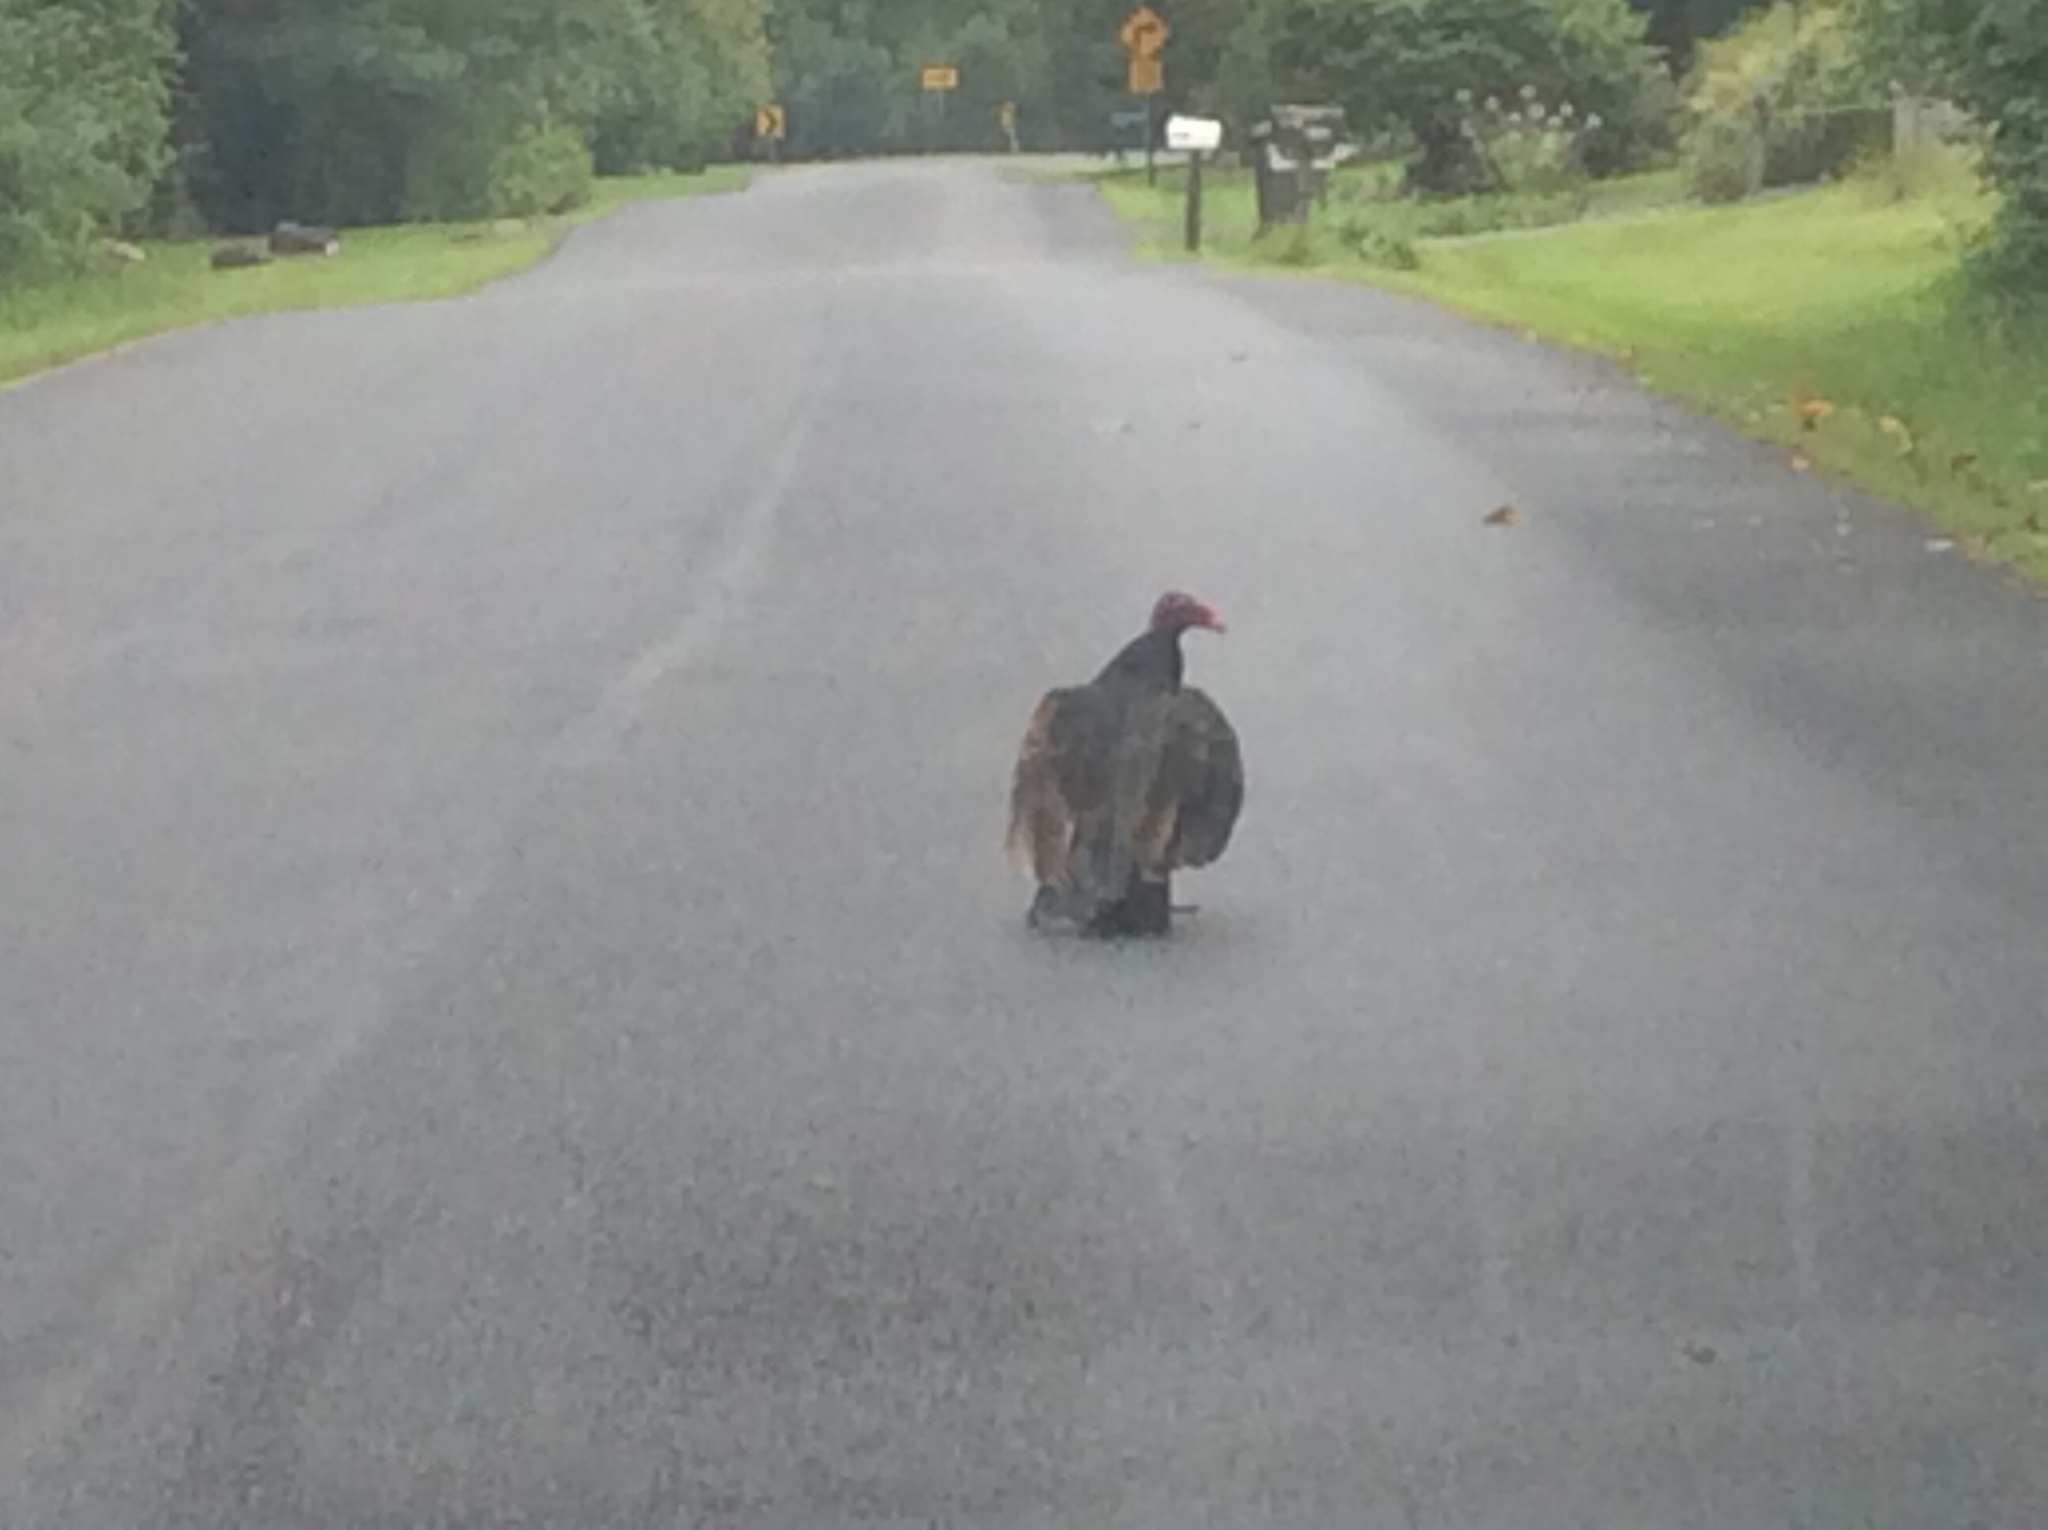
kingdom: Animalia
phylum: Chordata
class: Aves
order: Accipitriformes
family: Cathartidae
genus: Cathartes
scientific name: Cathartes aura
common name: Turkey vulture
